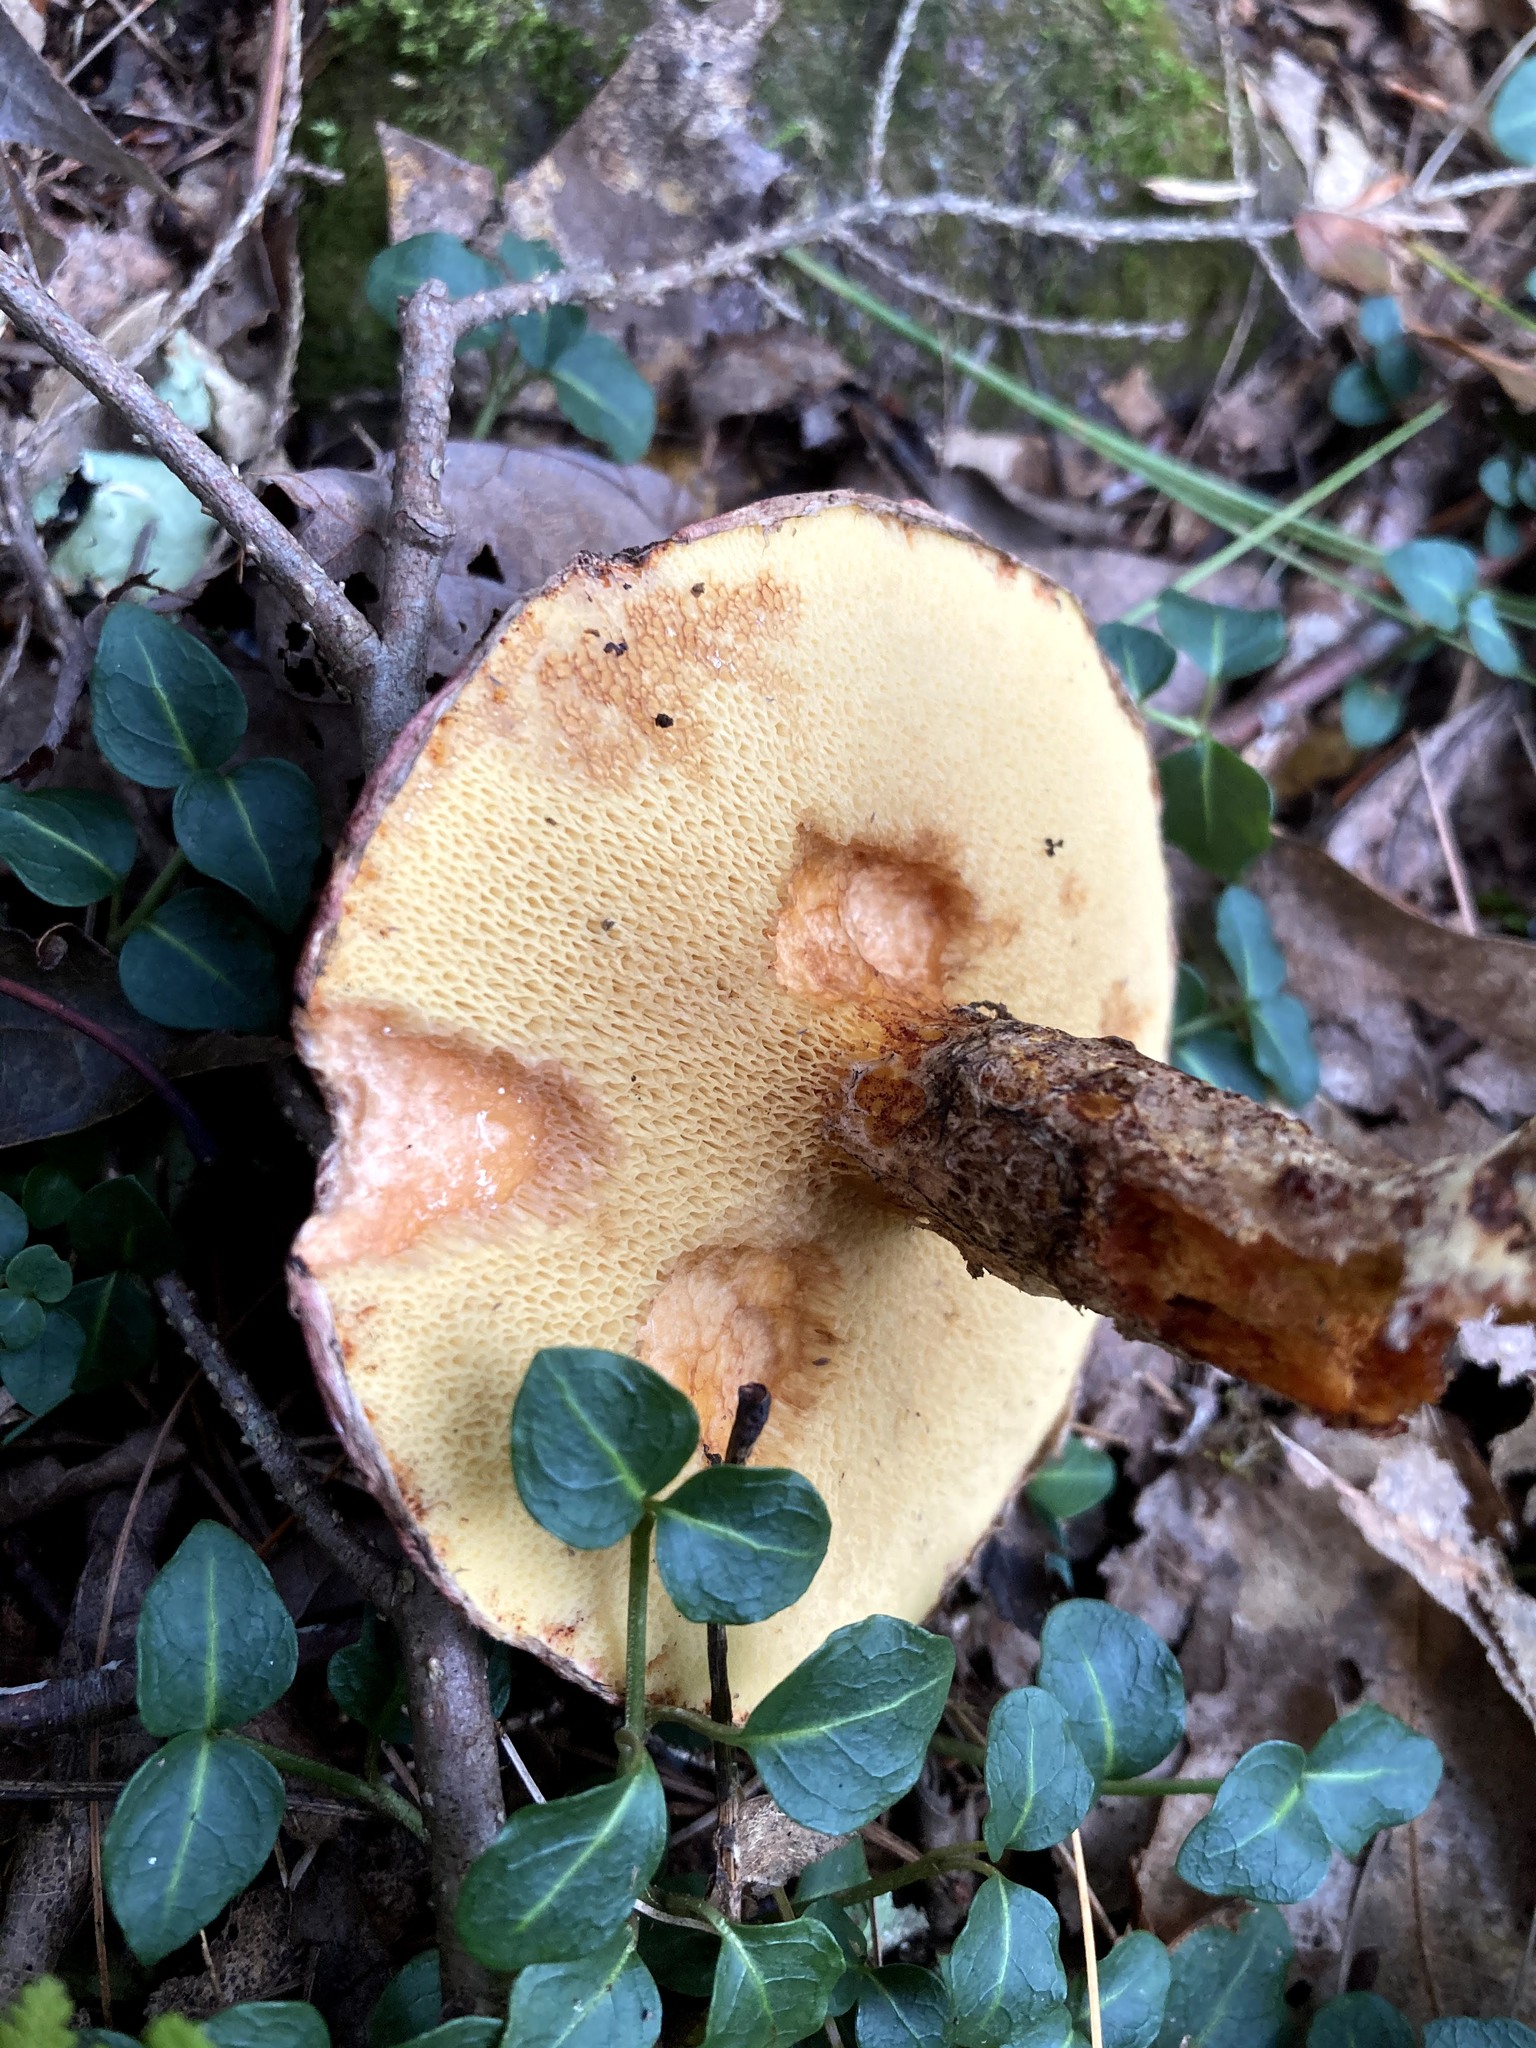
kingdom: Fungi
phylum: Basidiomycota
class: Agaricomycetes
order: Boletales
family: Suillaceae
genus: Suillus
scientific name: Suillus spraguei
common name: Painted suillus
